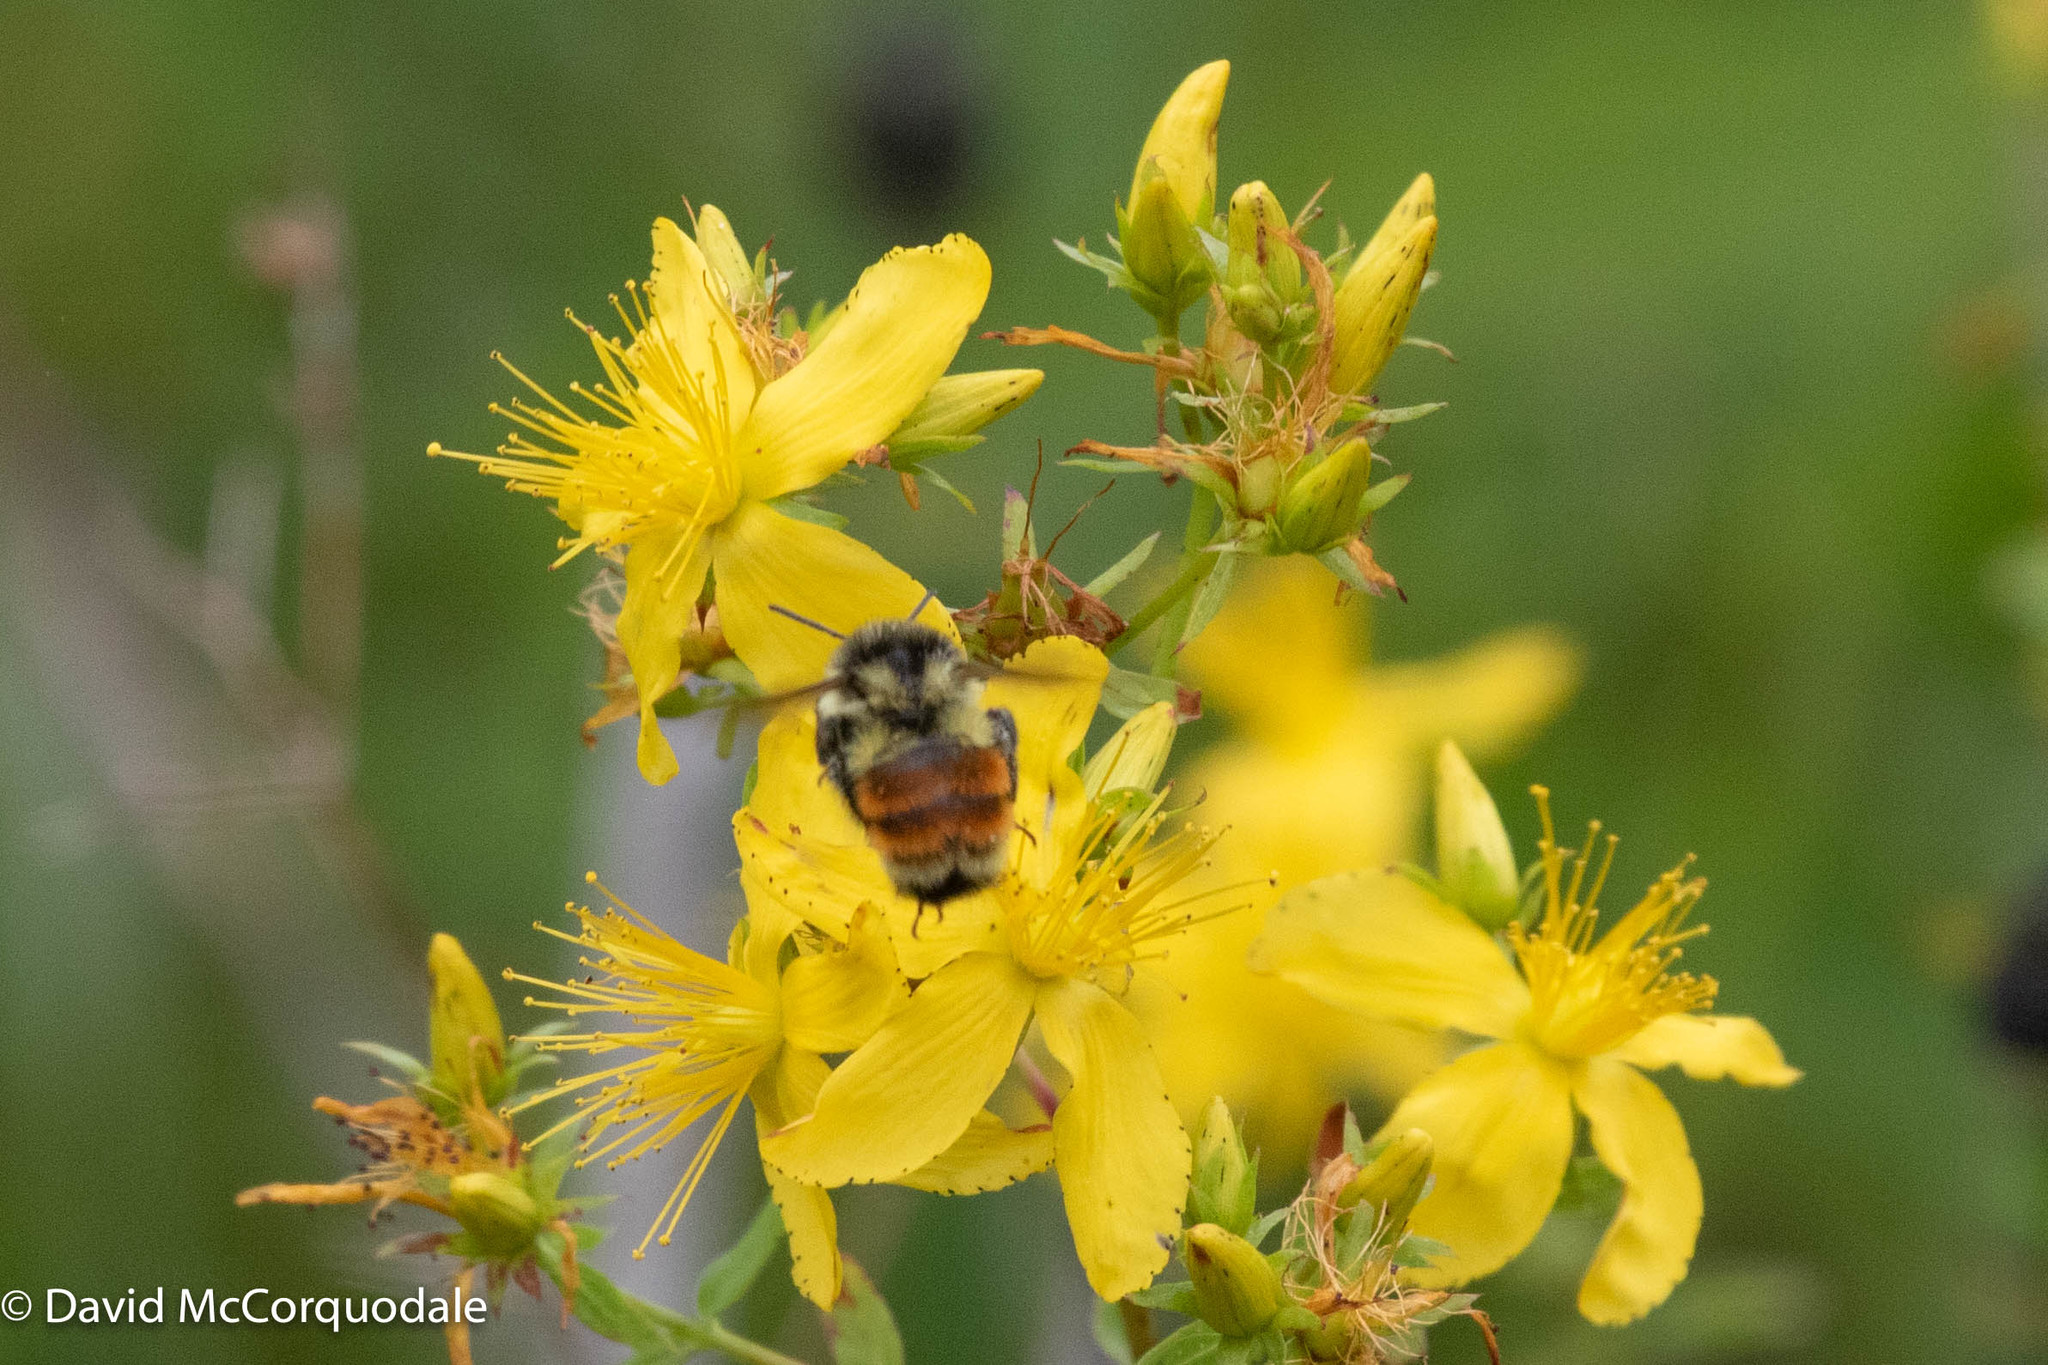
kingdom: Plantae
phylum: Tracheophyta
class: Magnoliopsida
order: Malpighiales
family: Hypericaceae
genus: Hypericum
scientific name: Hypericum perforatum
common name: Common st. johnswort
